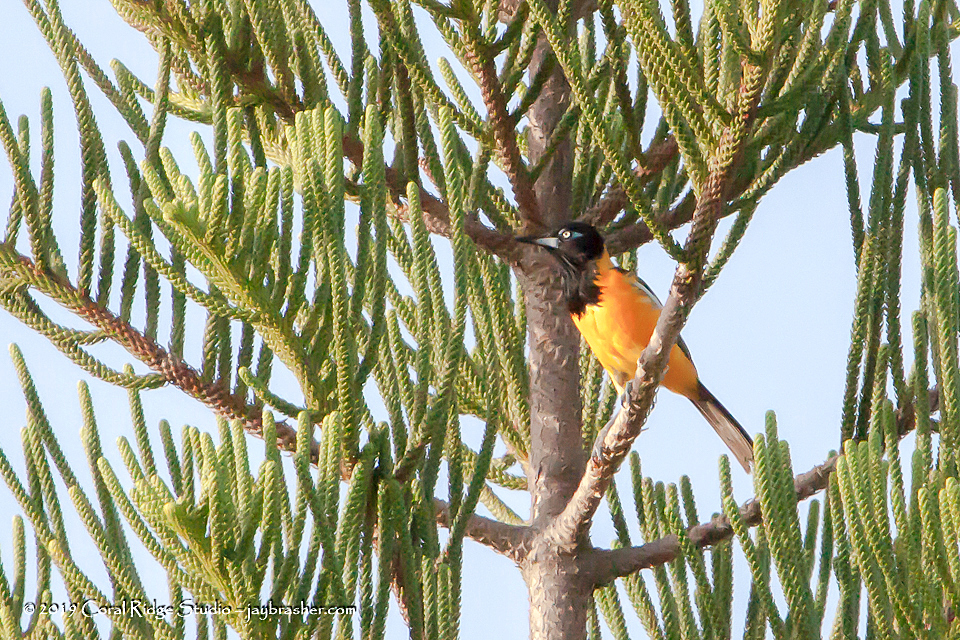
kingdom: Animalia
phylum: Chordata
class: Aves
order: Passeriformes
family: Icteridae
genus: Icterus
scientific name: Icterus icterus
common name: Venezuelan troupial
